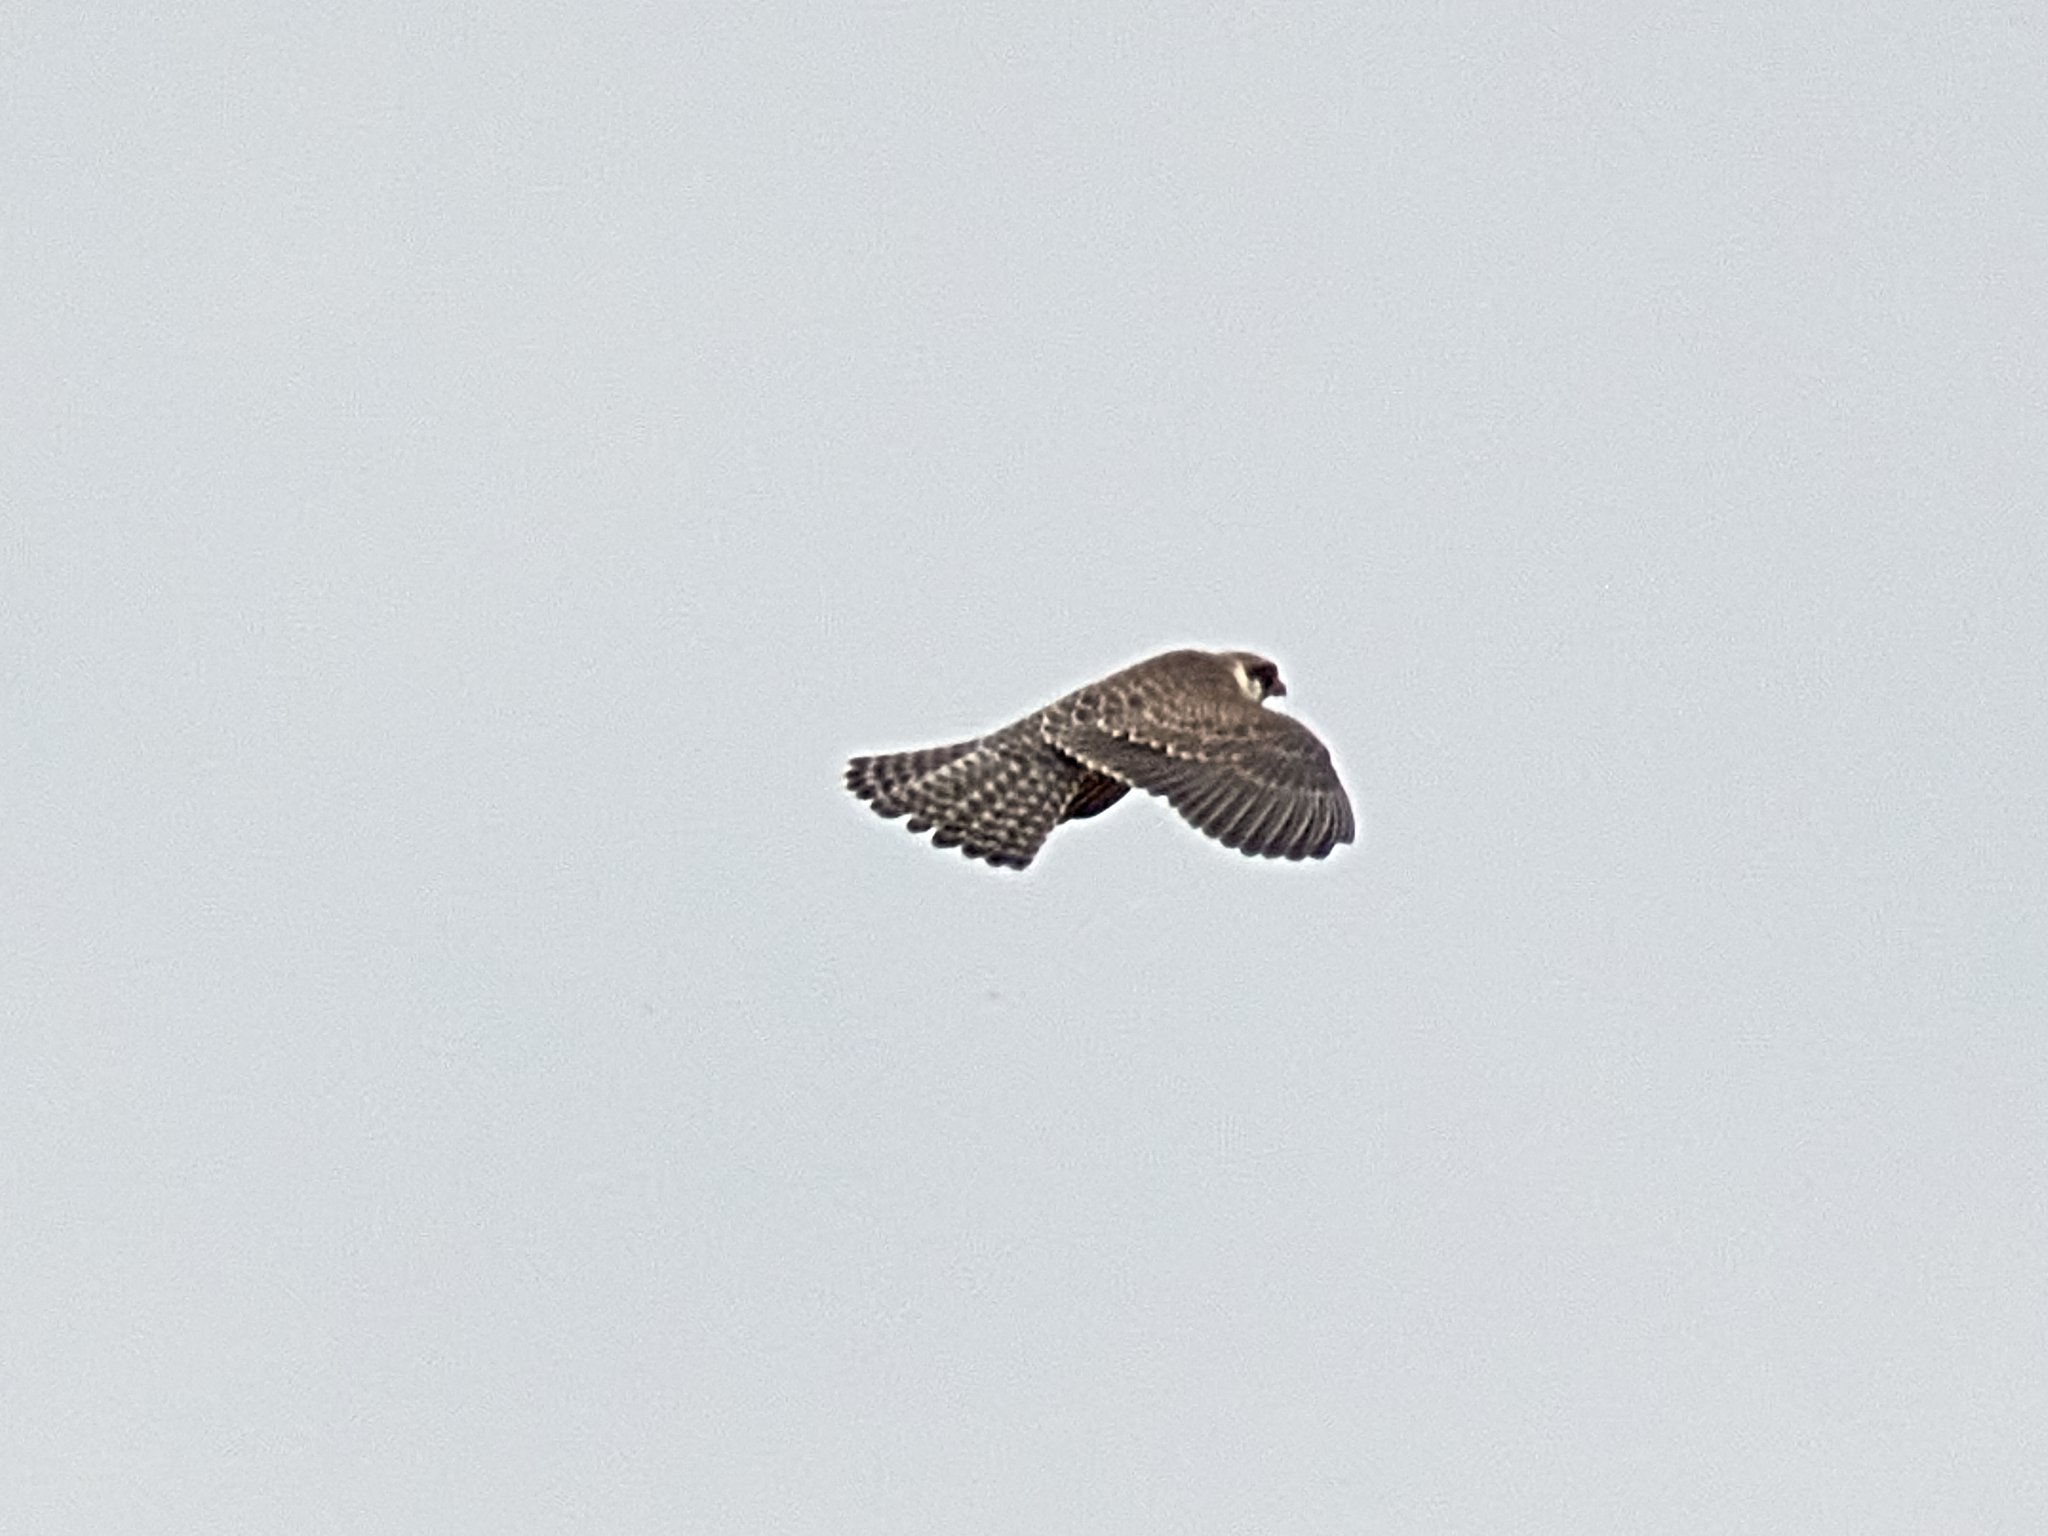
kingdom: Animalia
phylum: Chordata
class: Aves
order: Falconiformes
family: Falconidae
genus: Falco
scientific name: Falco vespertinus
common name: Red-footed falcon
